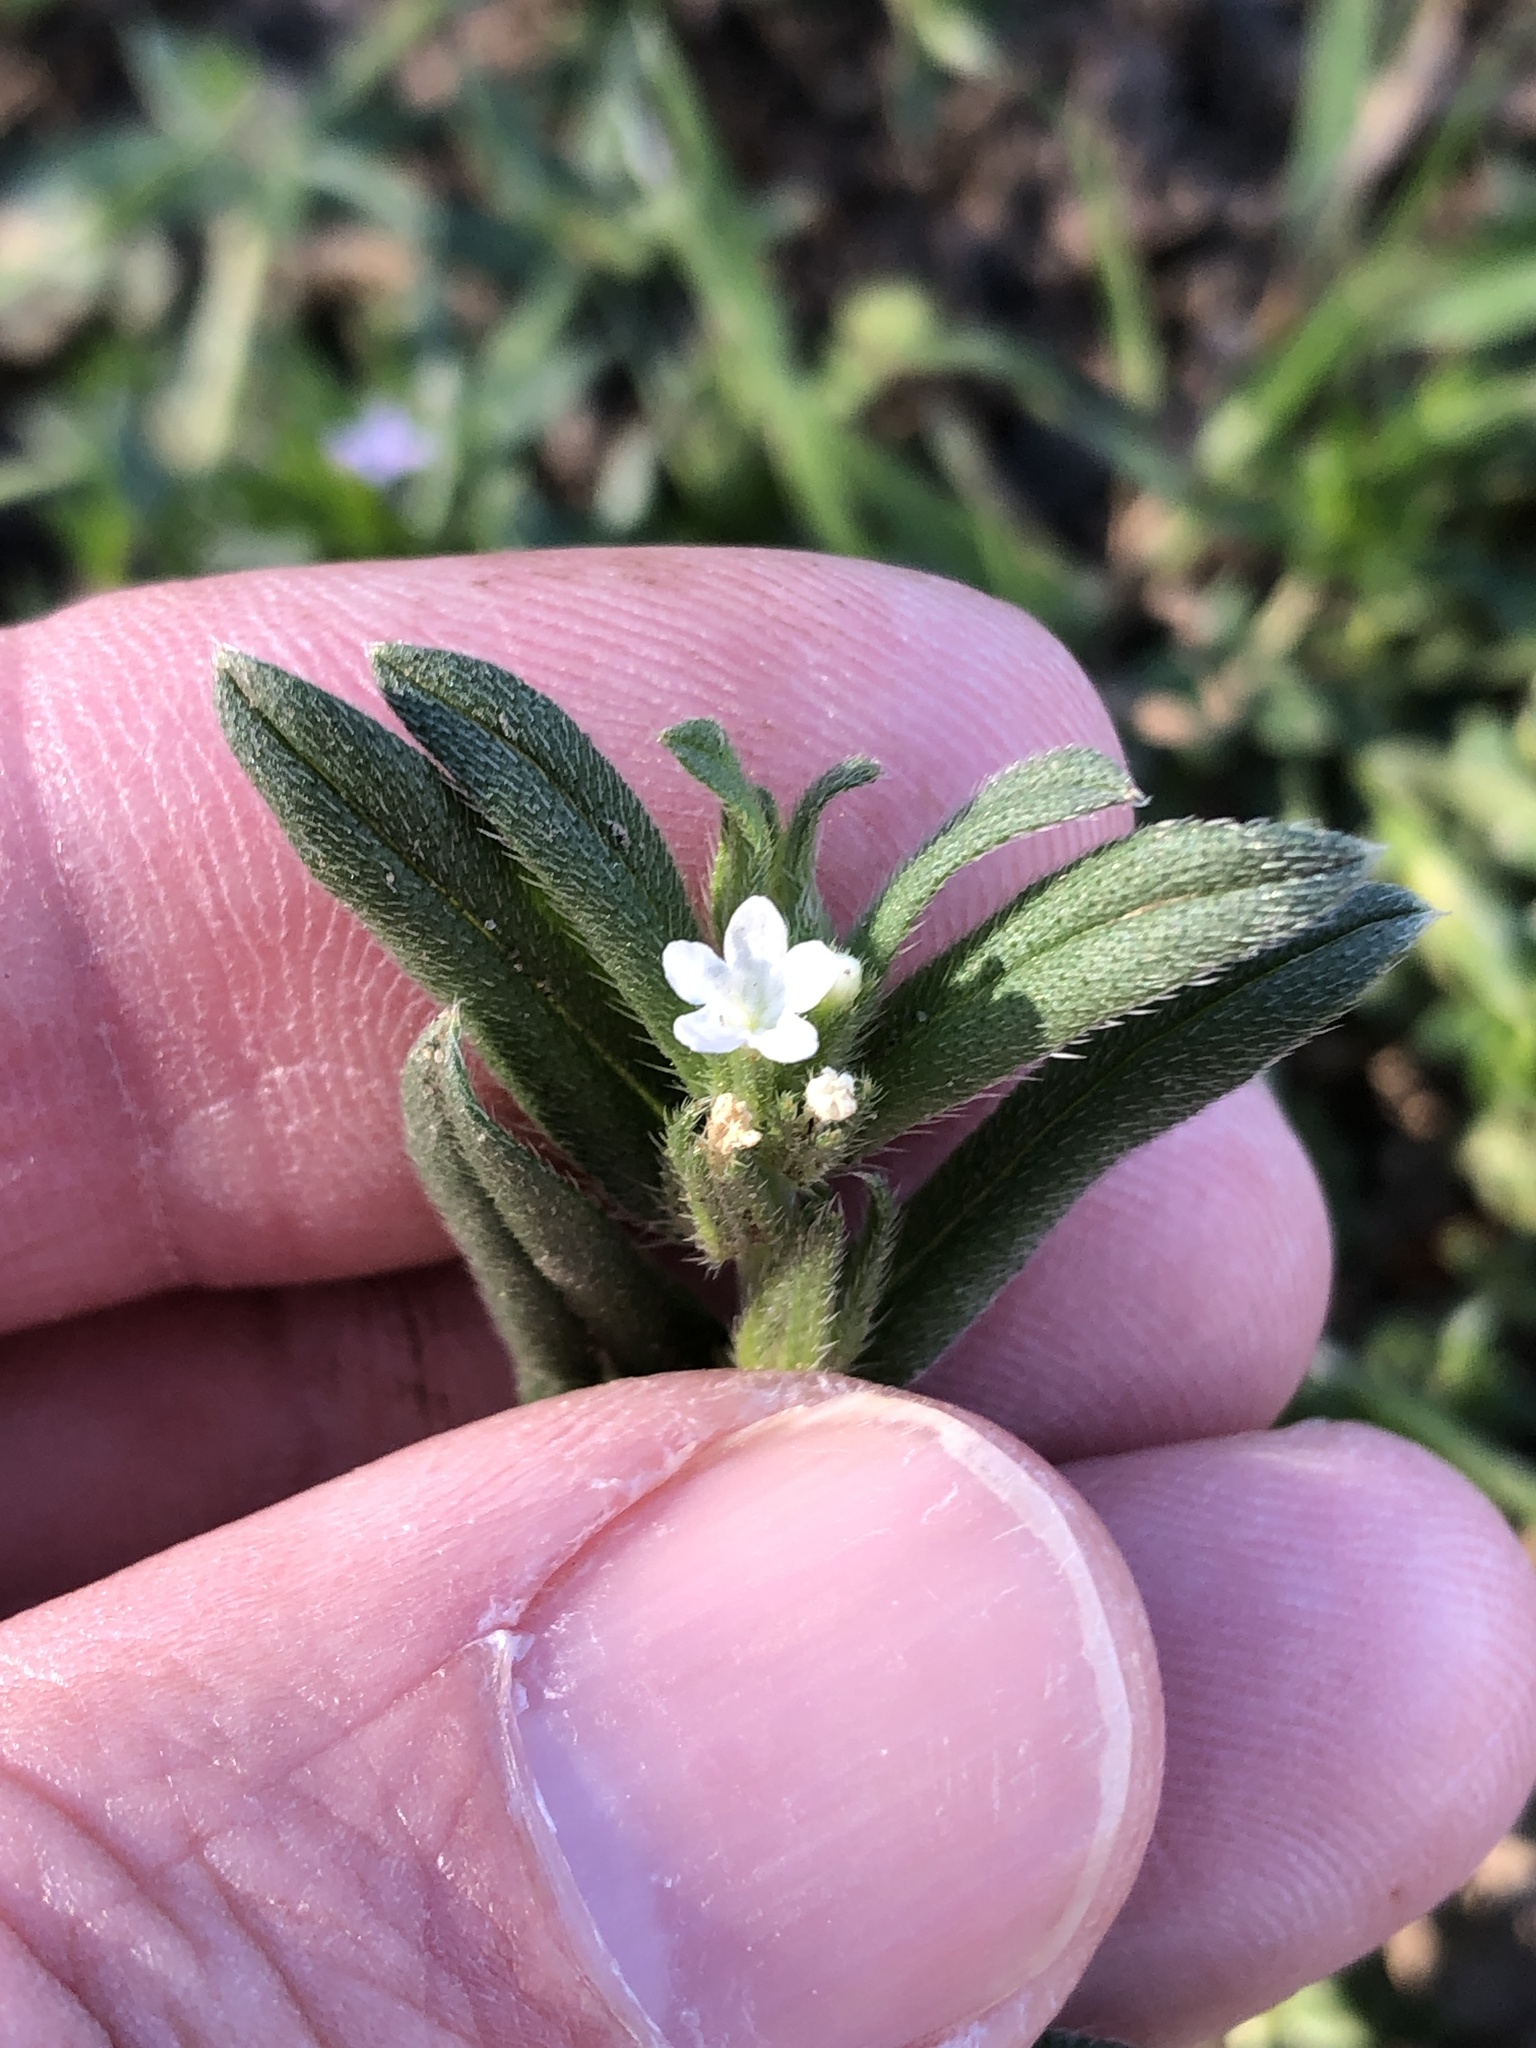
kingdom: Plantae
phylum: Tracheophyta
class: Magnoliopsida
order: Boraginales
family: Boraginaceae
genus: Buglossoides
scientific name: Buglossoides arvensis
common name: Corn gromwell
